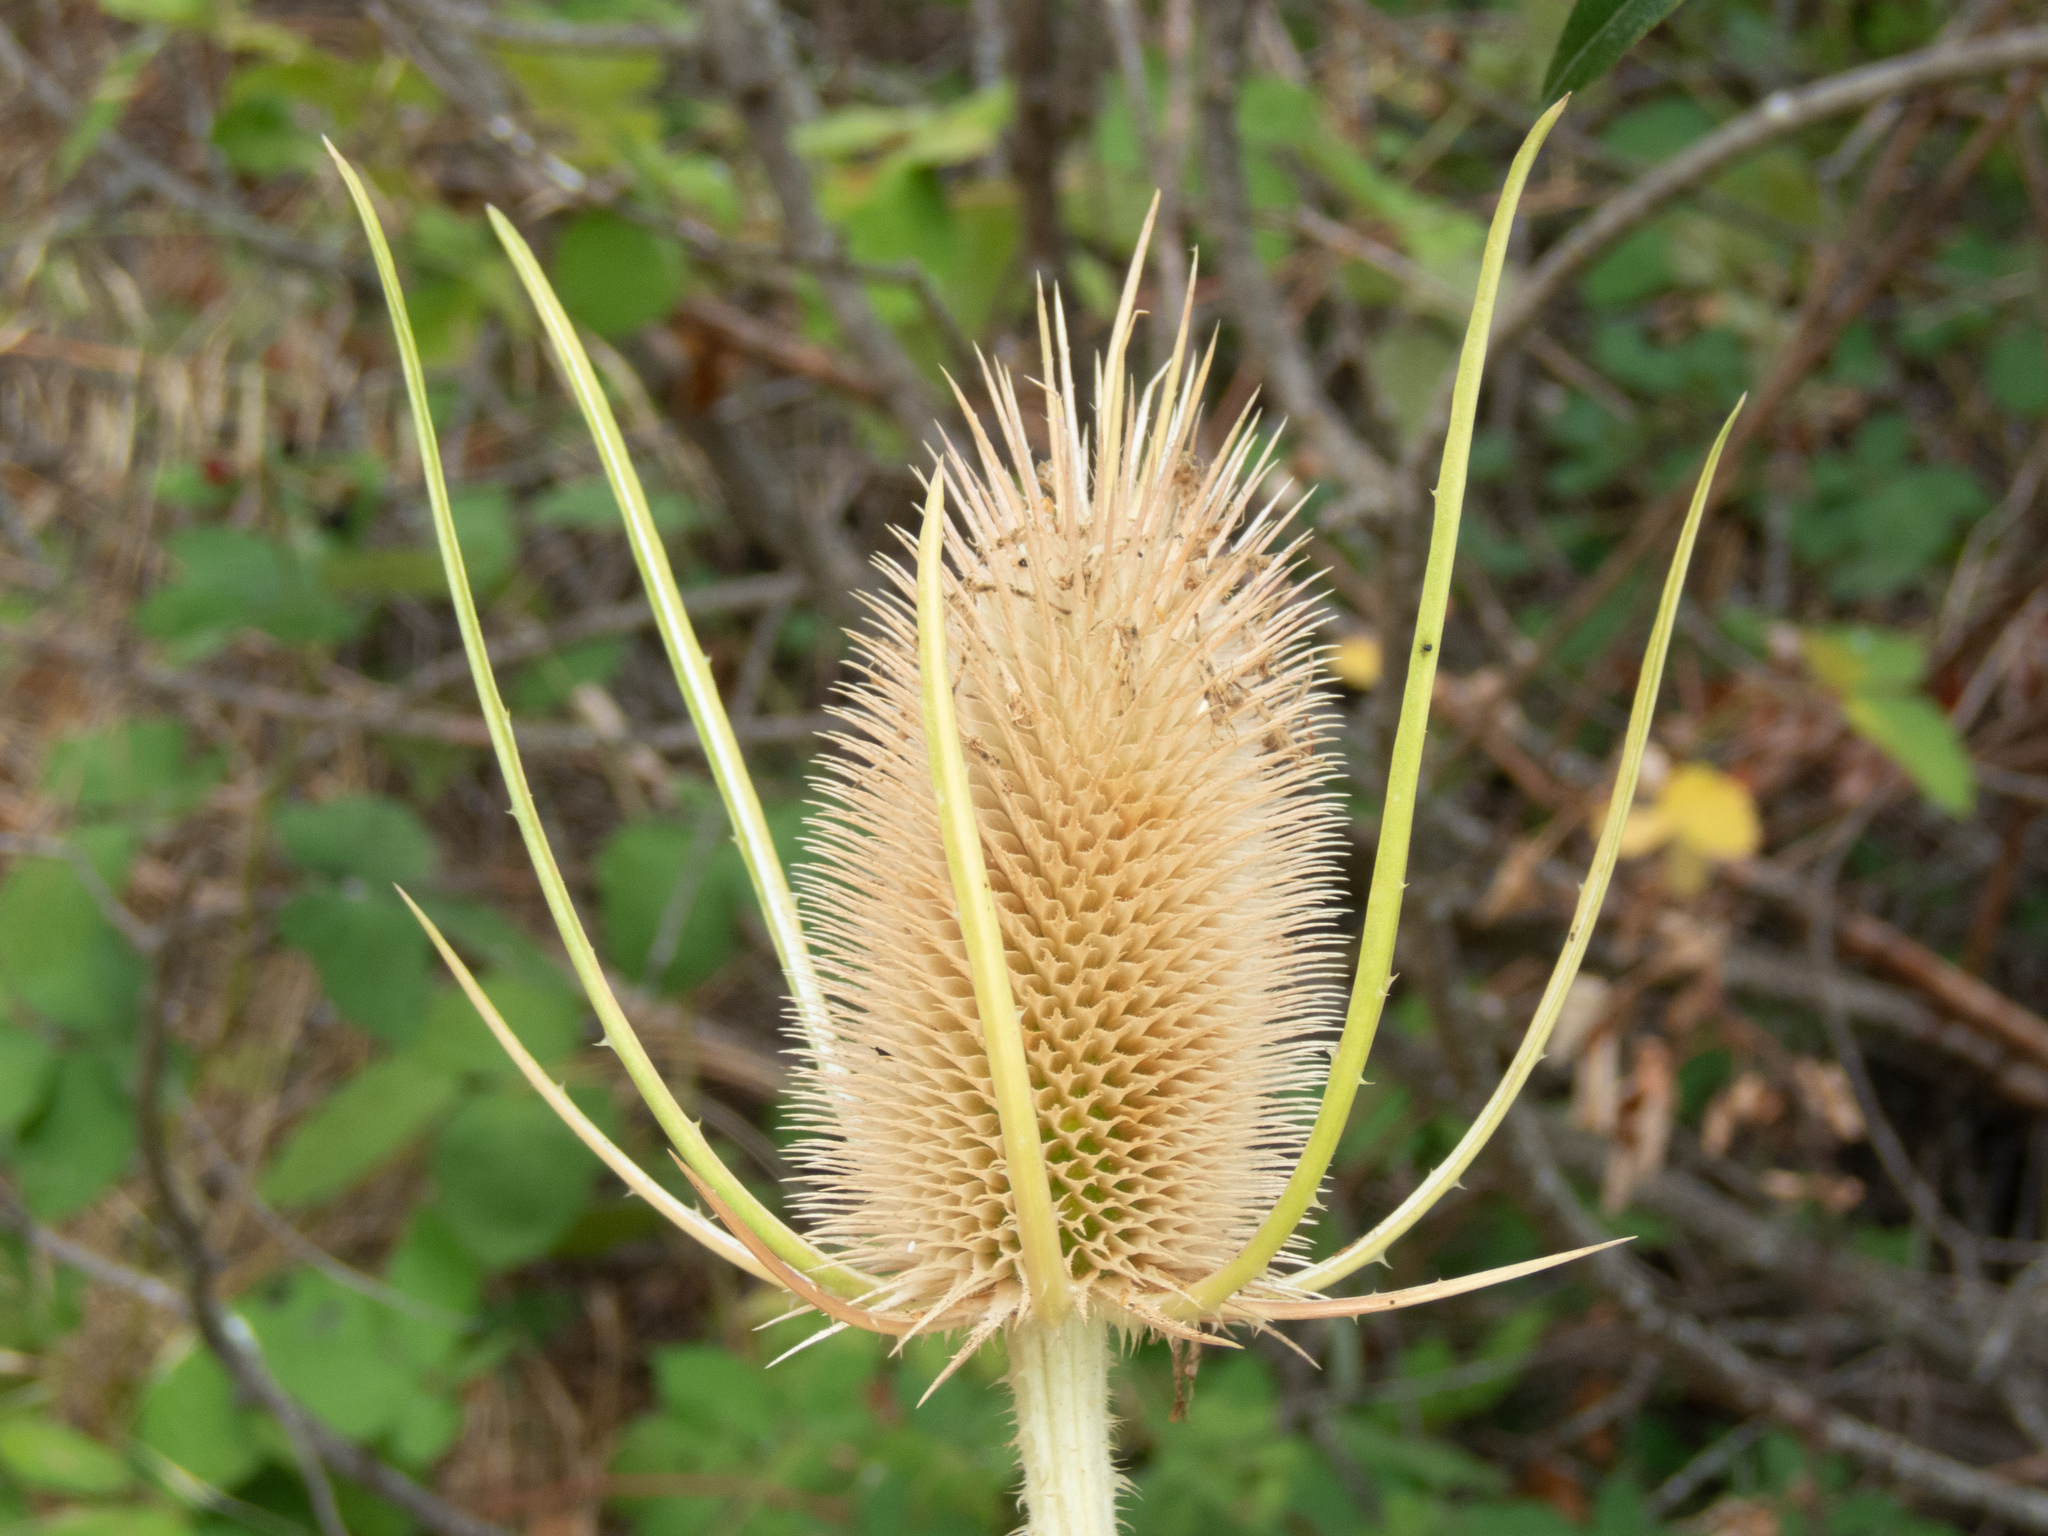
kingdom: Plantae
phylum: Tracheophyta
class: Magnoliopsida
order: Dipsacales
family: Caprifoliaceae
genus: Dipsacus
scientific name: Dipsacus fullonum
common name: Teasel
